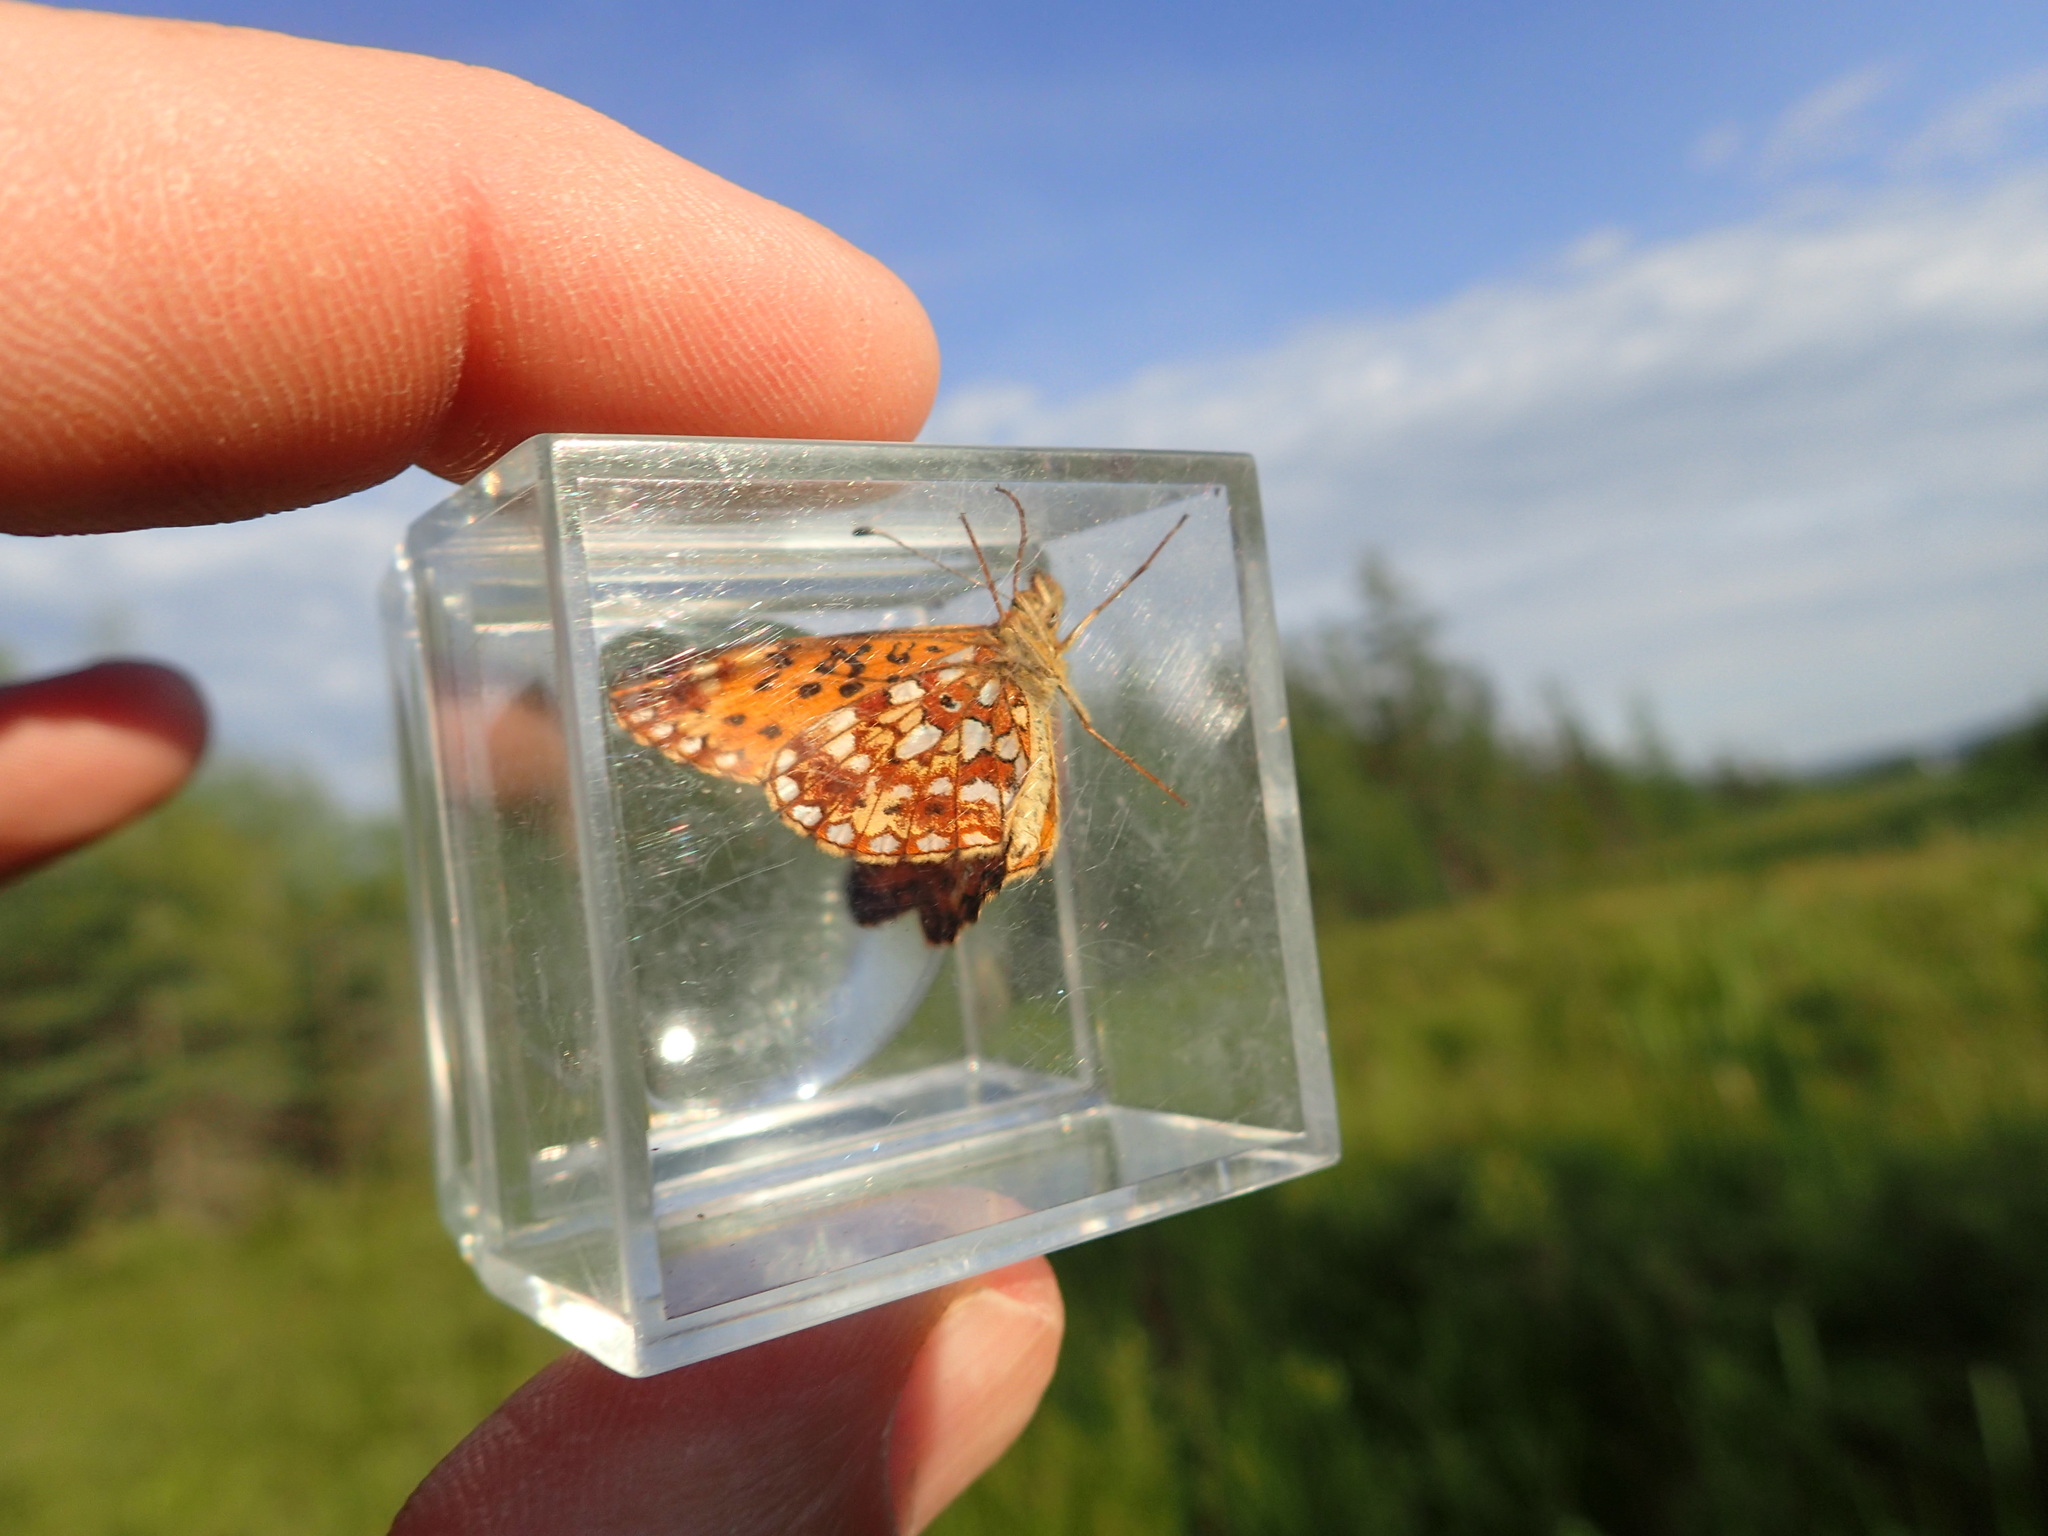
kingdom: Animalia
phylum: Arthropoda
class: Insecta
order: Lepidoptera
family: Nymphalidae
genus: Boloria
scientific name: Boloria
